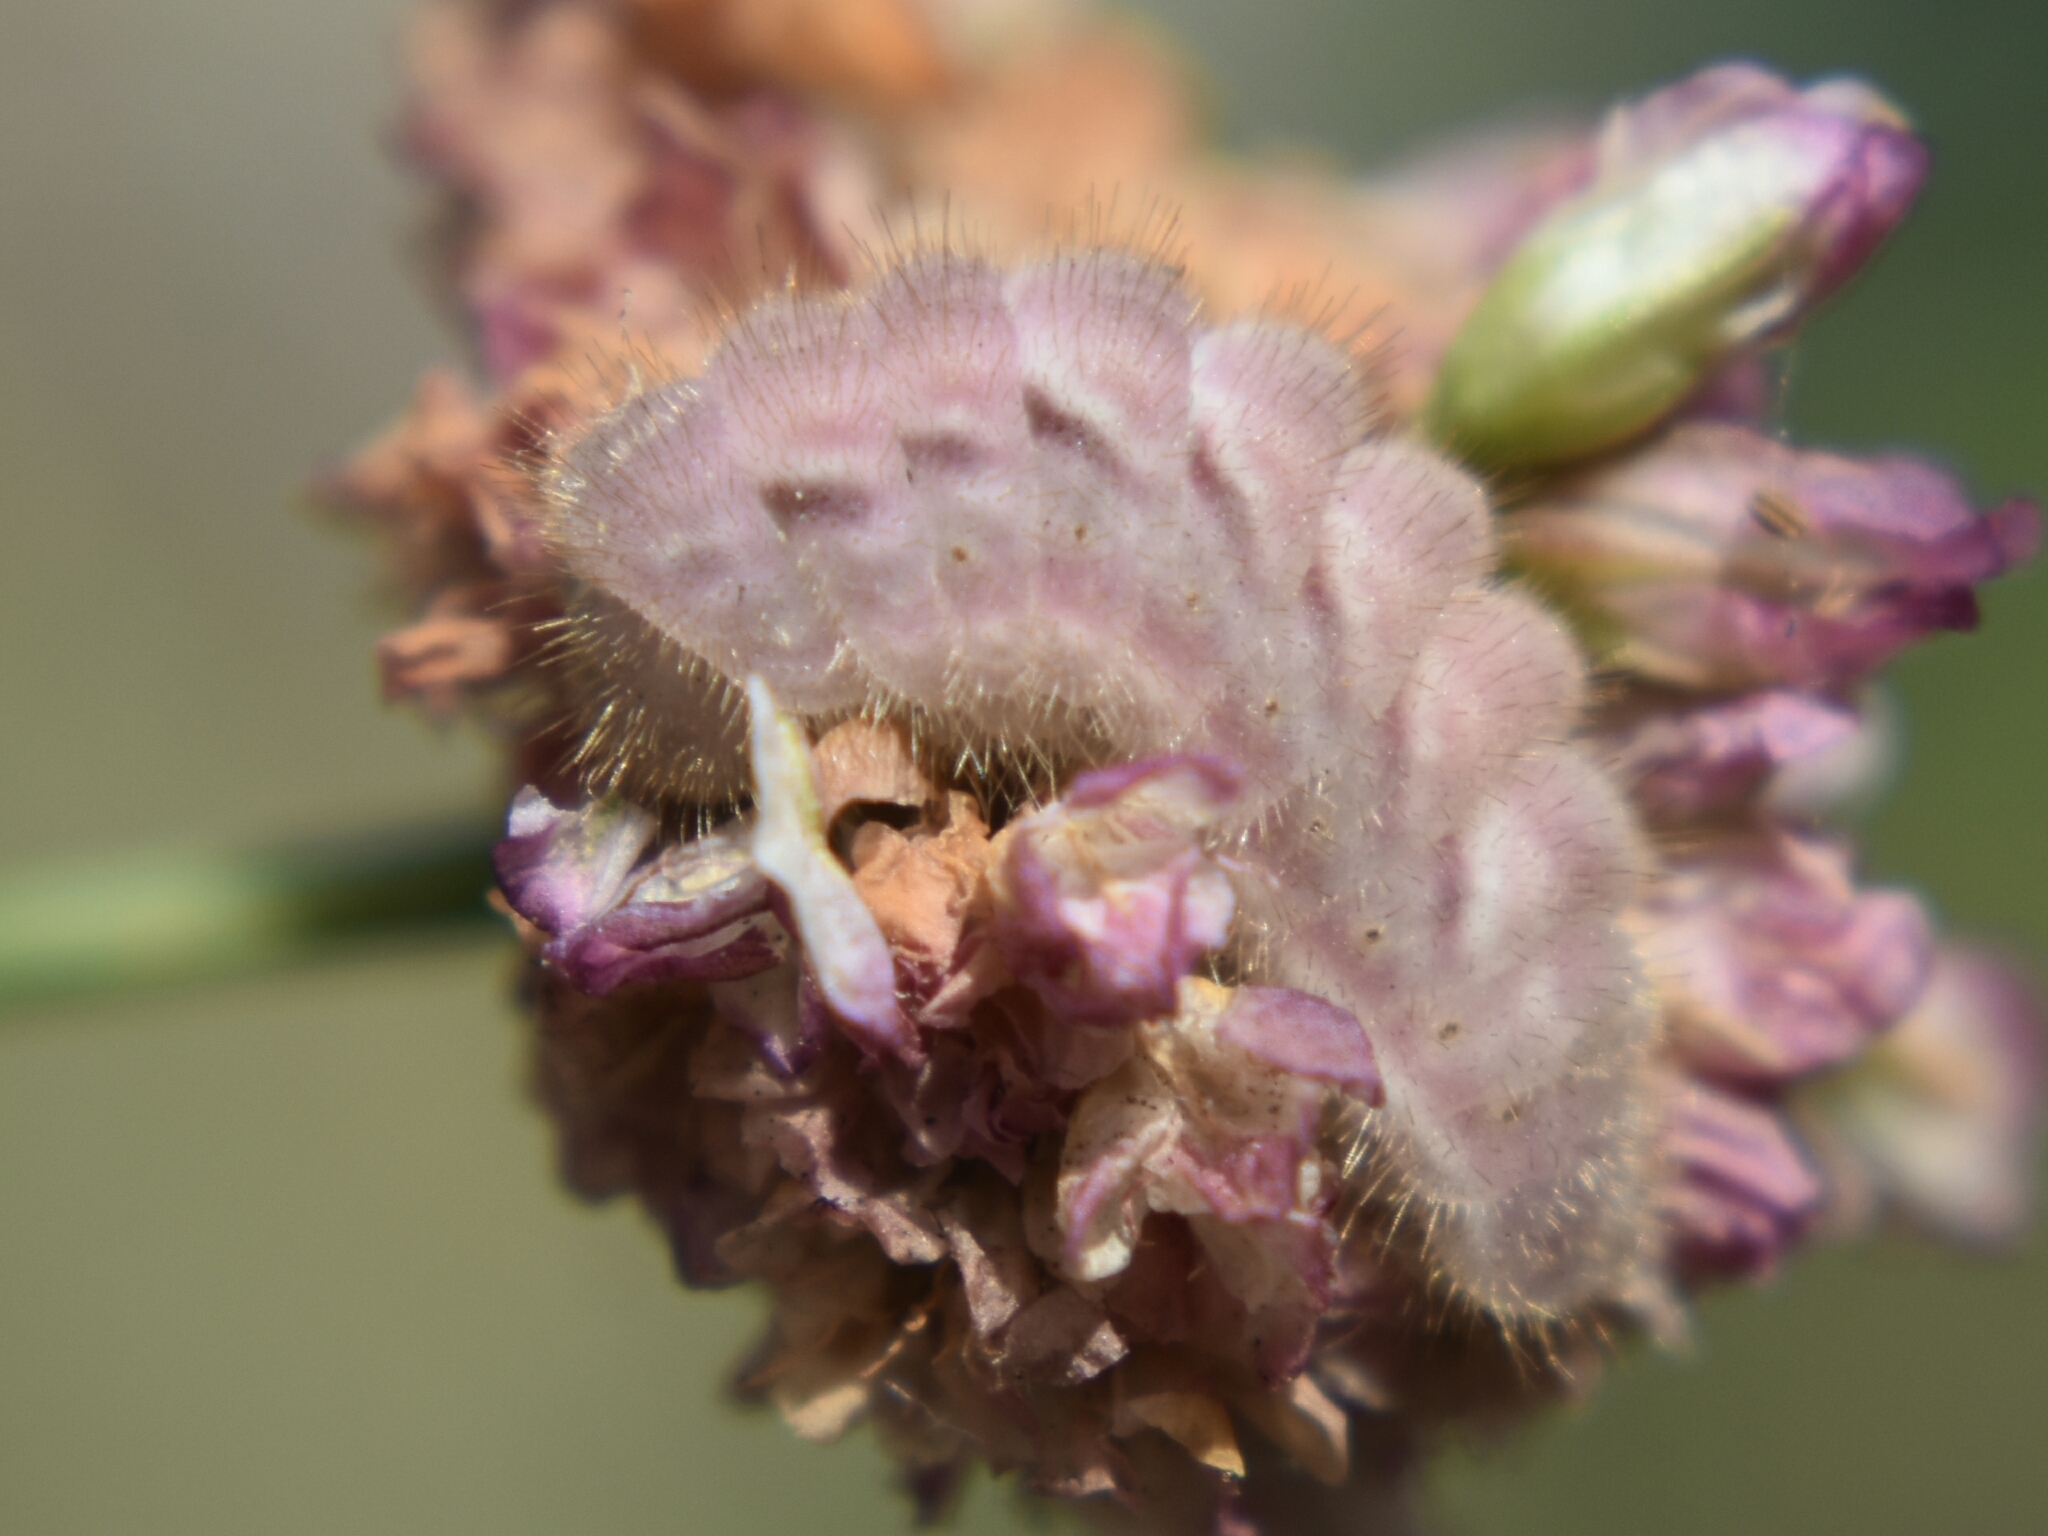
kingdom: Animalia
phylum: Arthropoda
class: Insecta
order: Lepidoptera
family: Lycaenidae
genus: Strymon
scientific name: Strymon melinus
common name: Gray hairstreak
